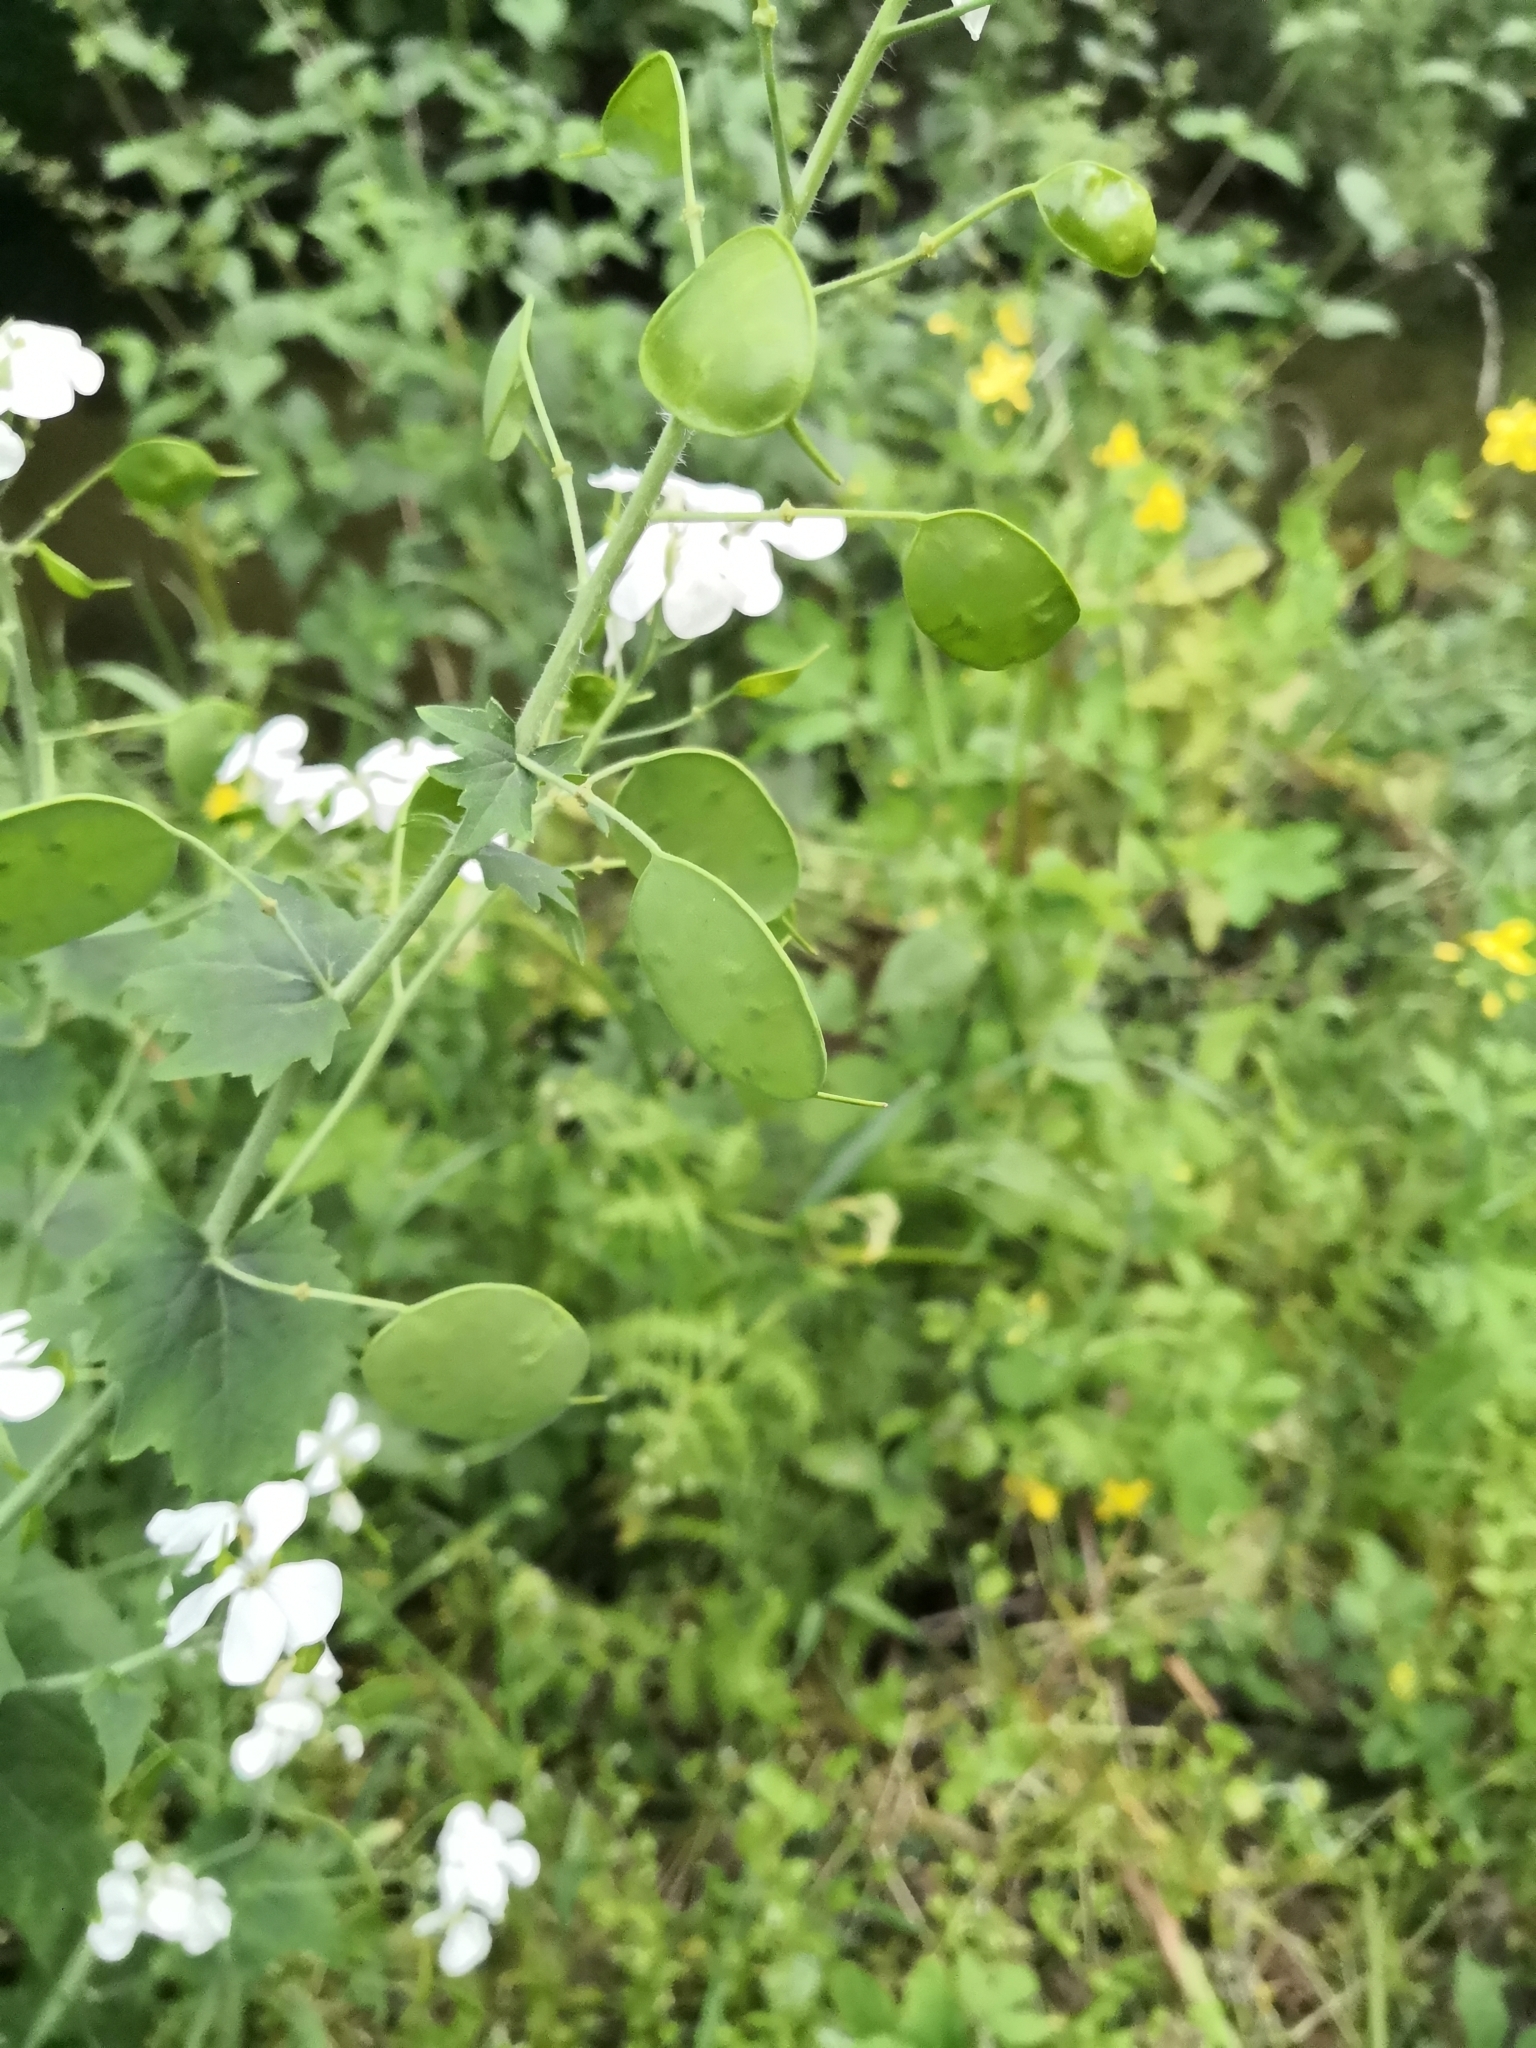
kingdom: Plantae
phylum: Tracheophyta
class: Magnoliopsida
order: Brassicales
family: Brassicaceae
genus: Lunaria
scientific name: Lunaria annua
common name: Honesty
